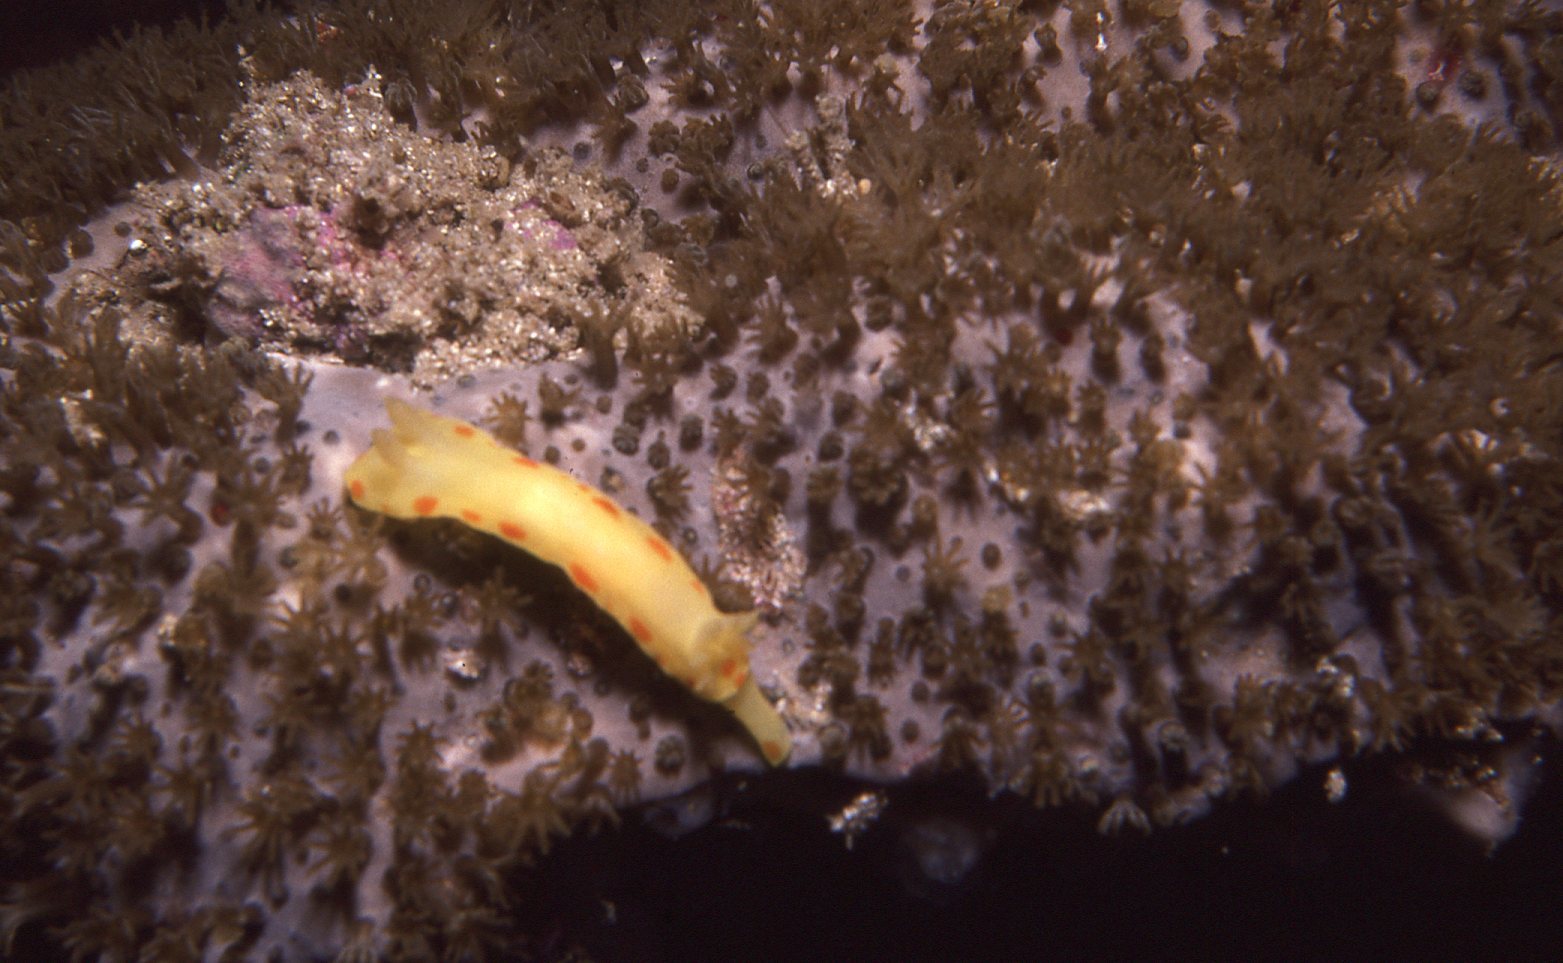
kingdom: Animalia
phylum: Mollusca
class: Gastropoda
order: Nudibranchia
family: Chromodorididae
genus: Diversidoris
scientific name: Diversidoris sulphurea
